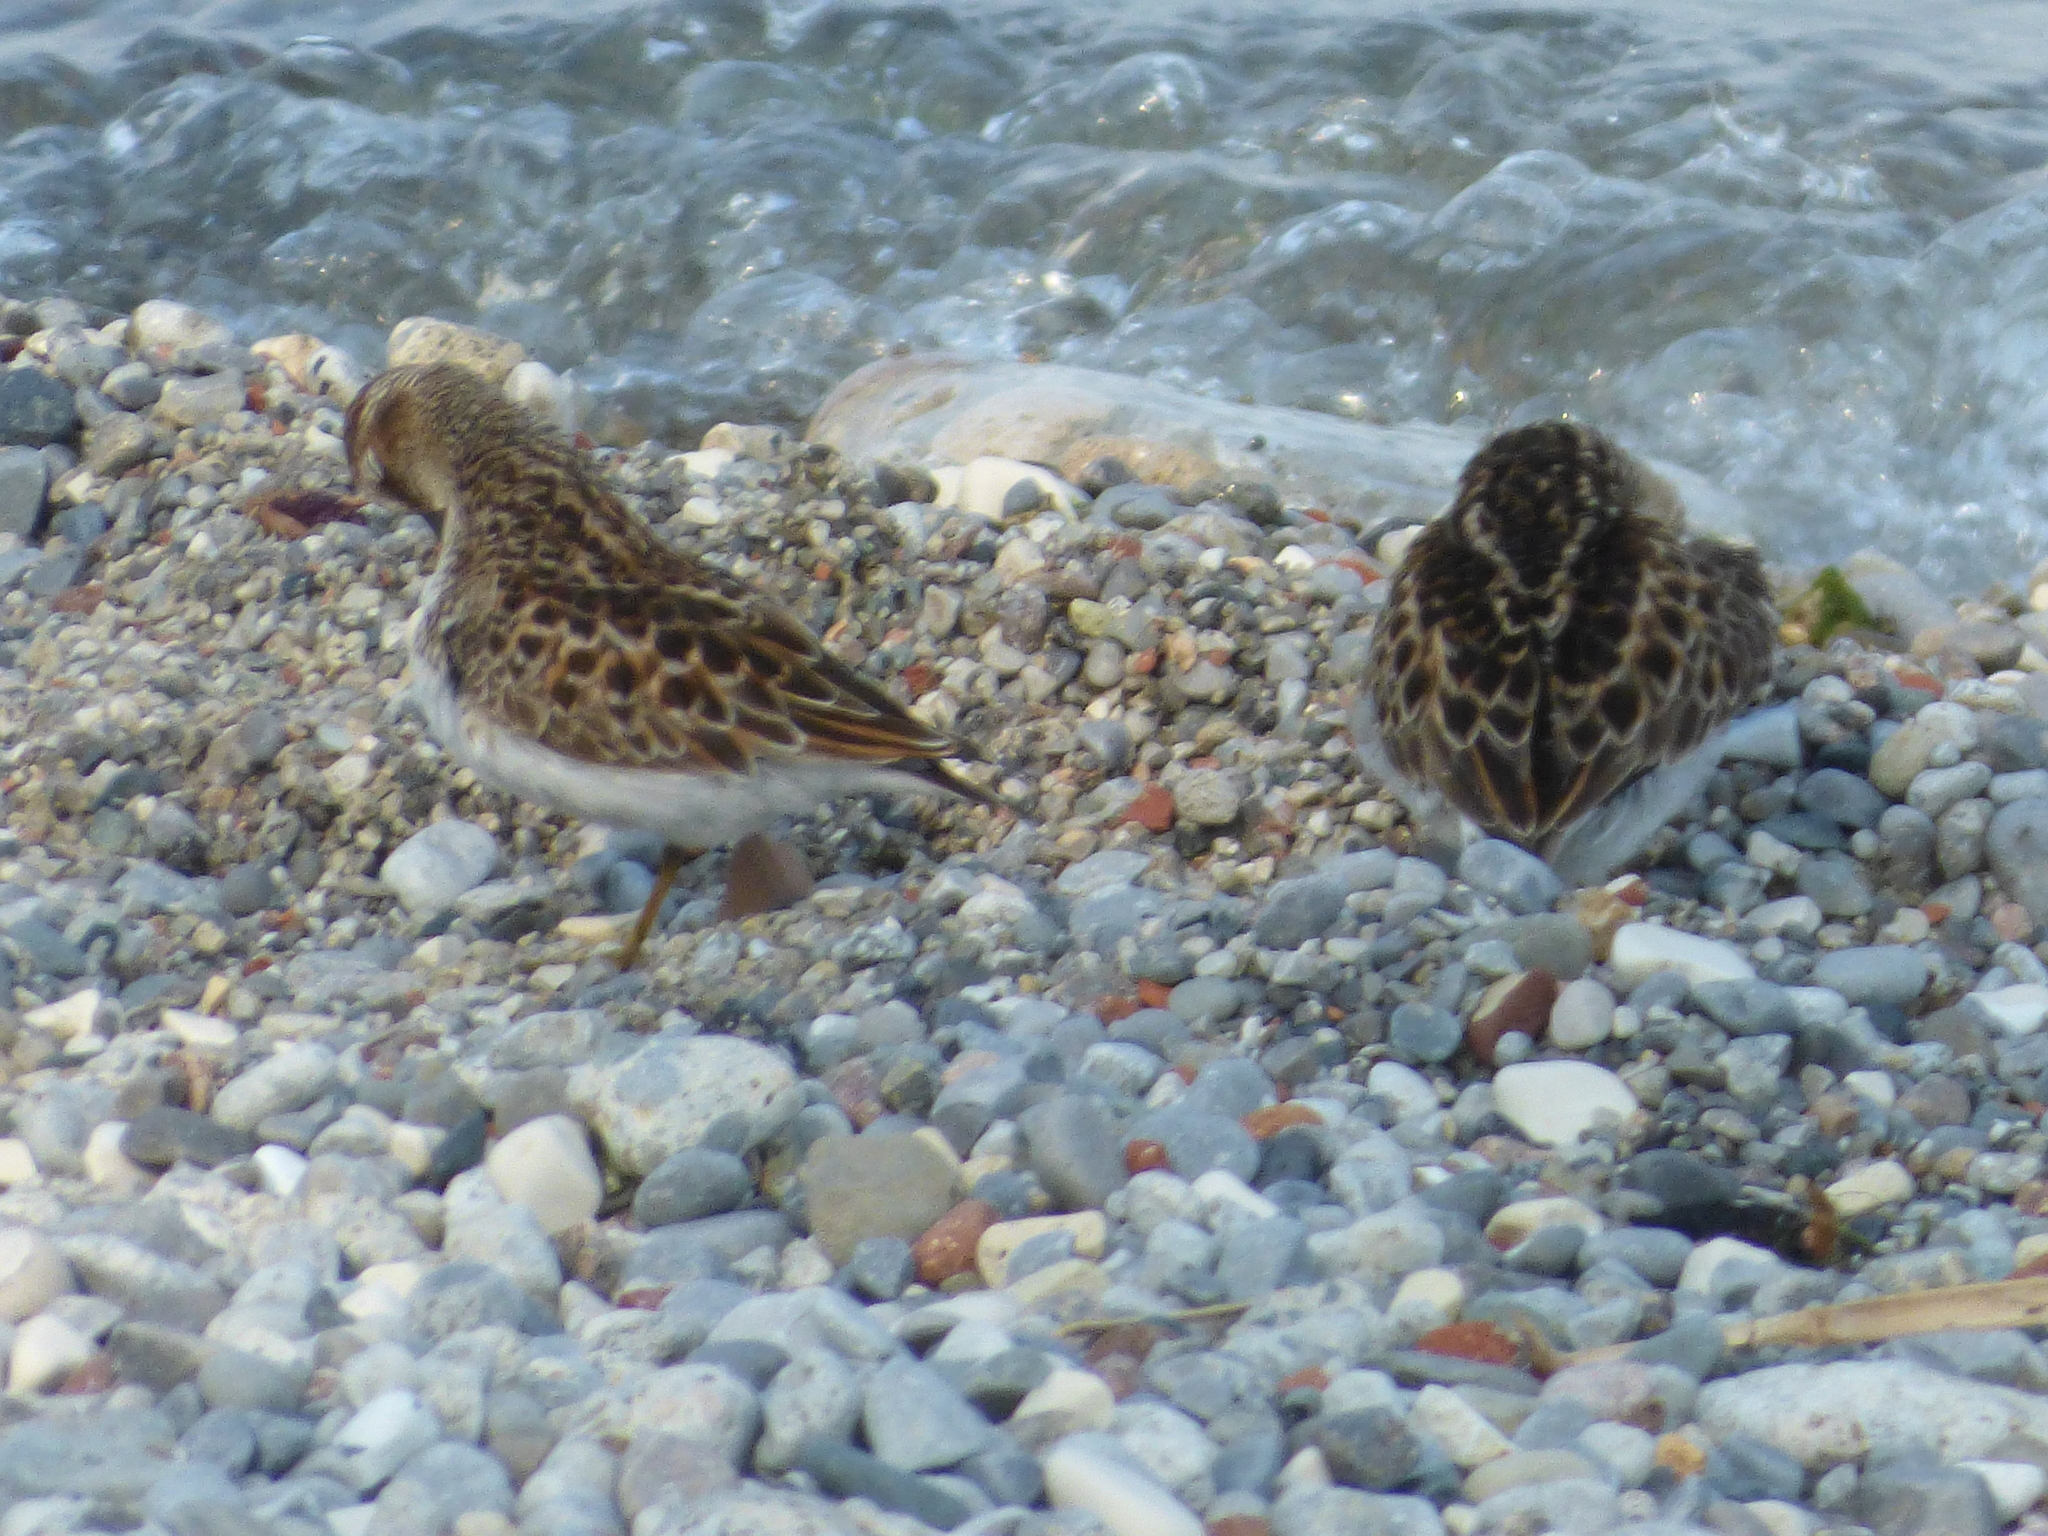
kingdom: Animalia
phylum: Chordata
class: Aves
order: Charadriiformes
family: Scolopacidae
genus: Calidris
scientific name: Calidris minutilla
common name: Least sandpiper
